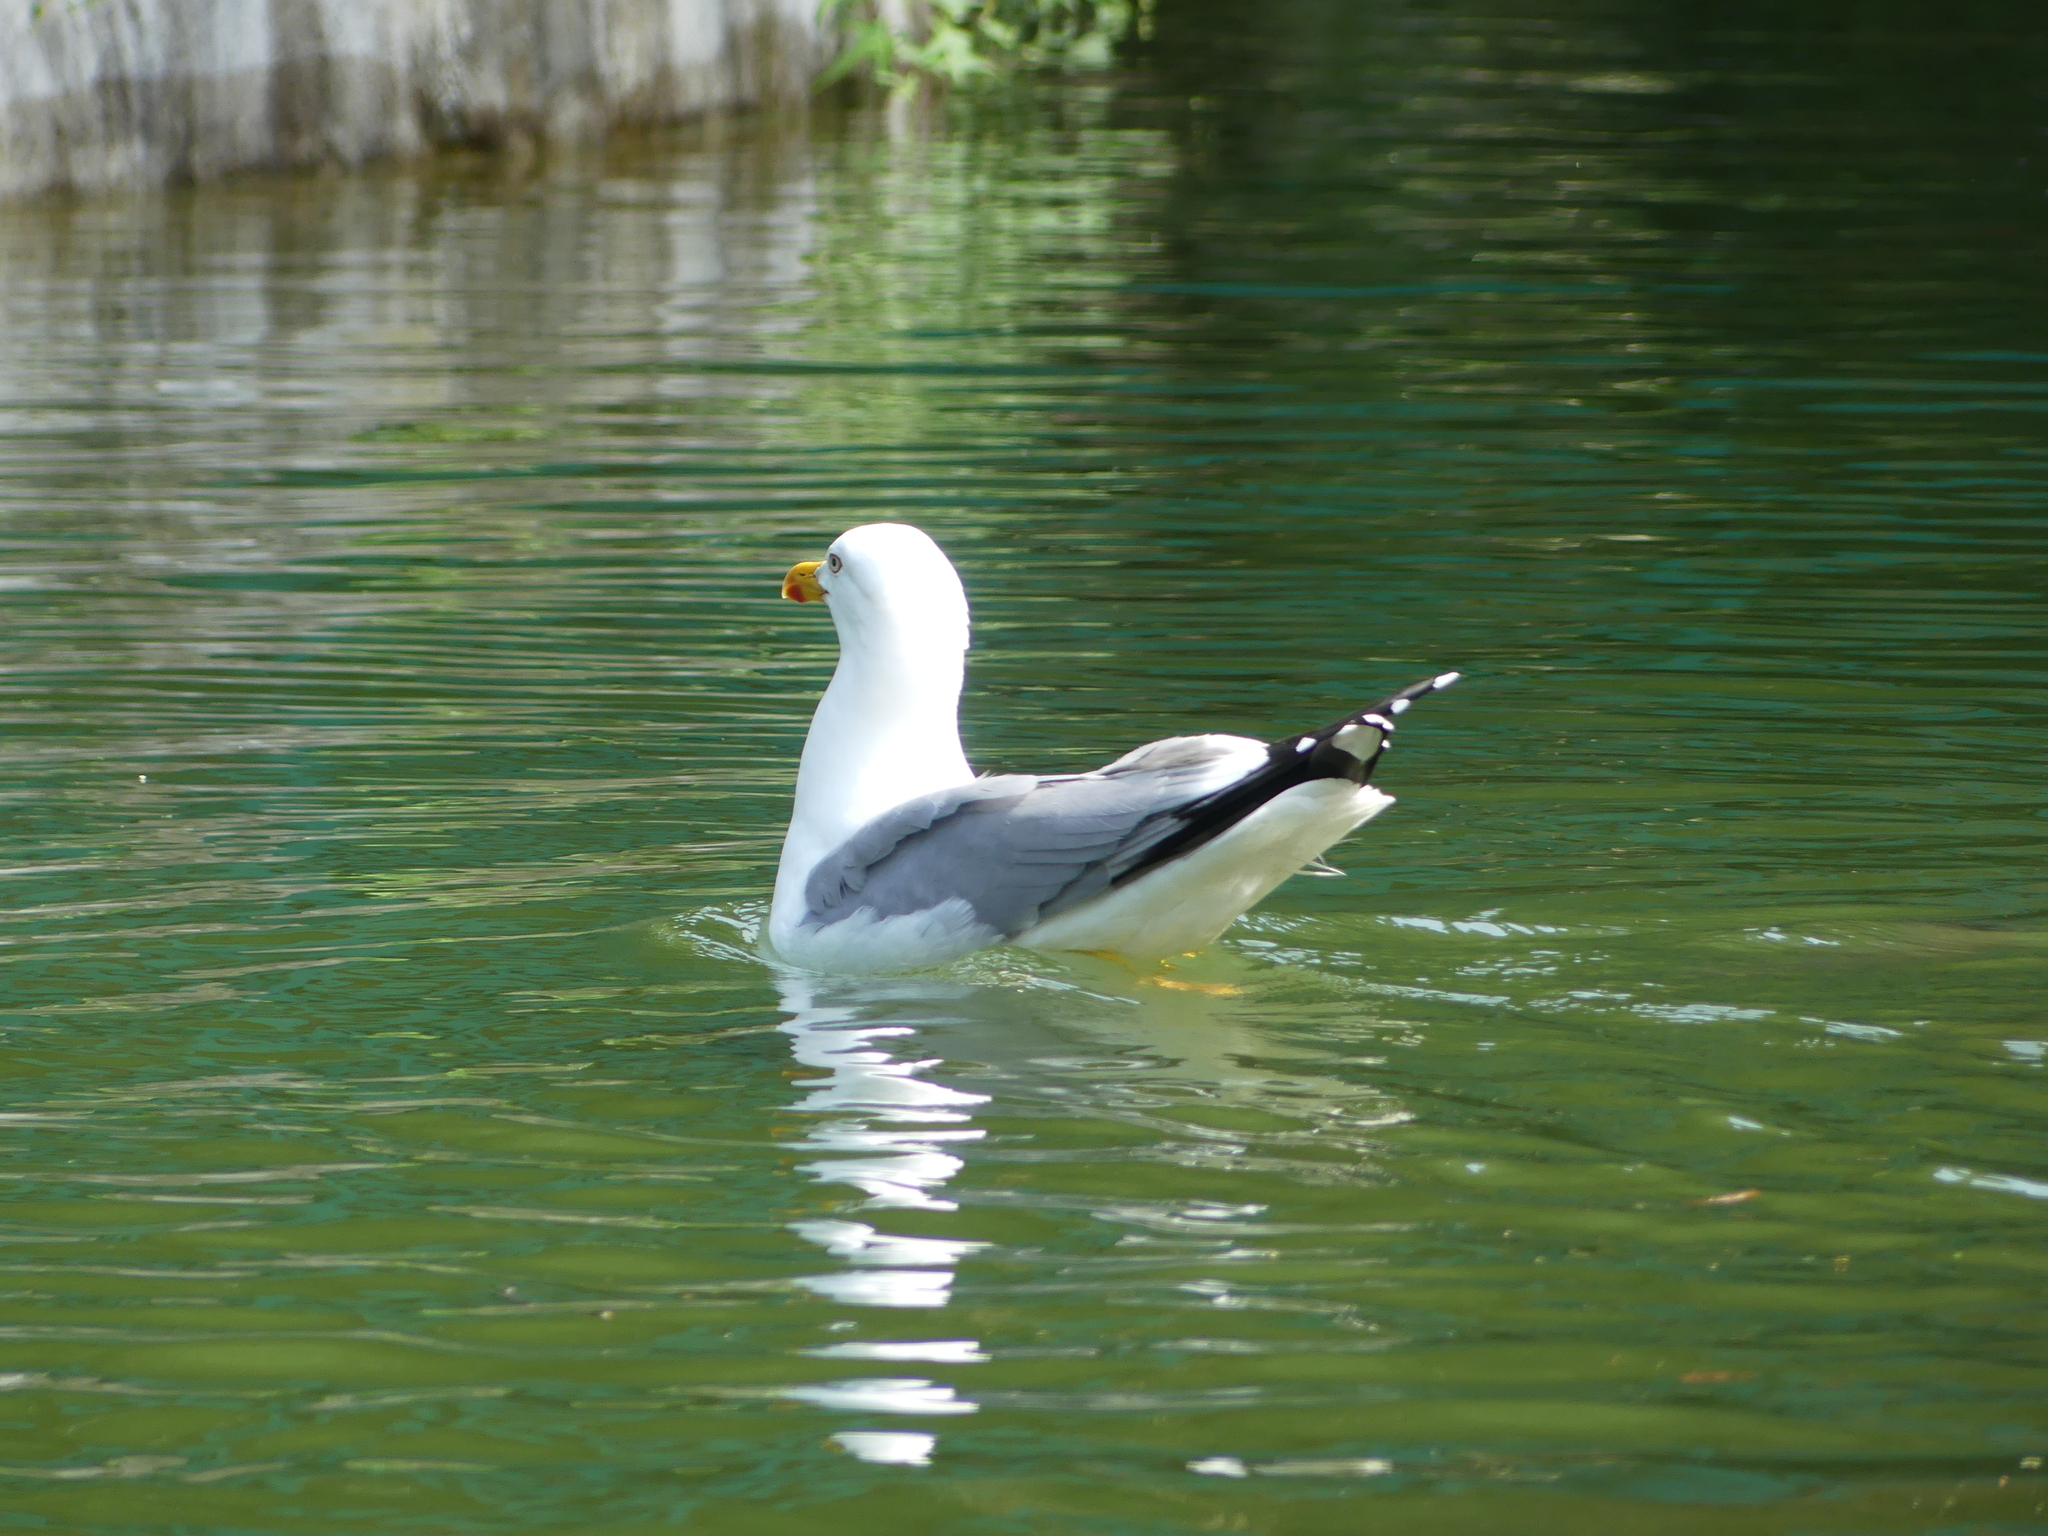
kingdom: Animalia
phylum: Chordata
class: Aves
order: Charadriiformes
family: Laridae
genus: Larus
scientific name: Larus michahellis
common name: Yellow-legged gull
